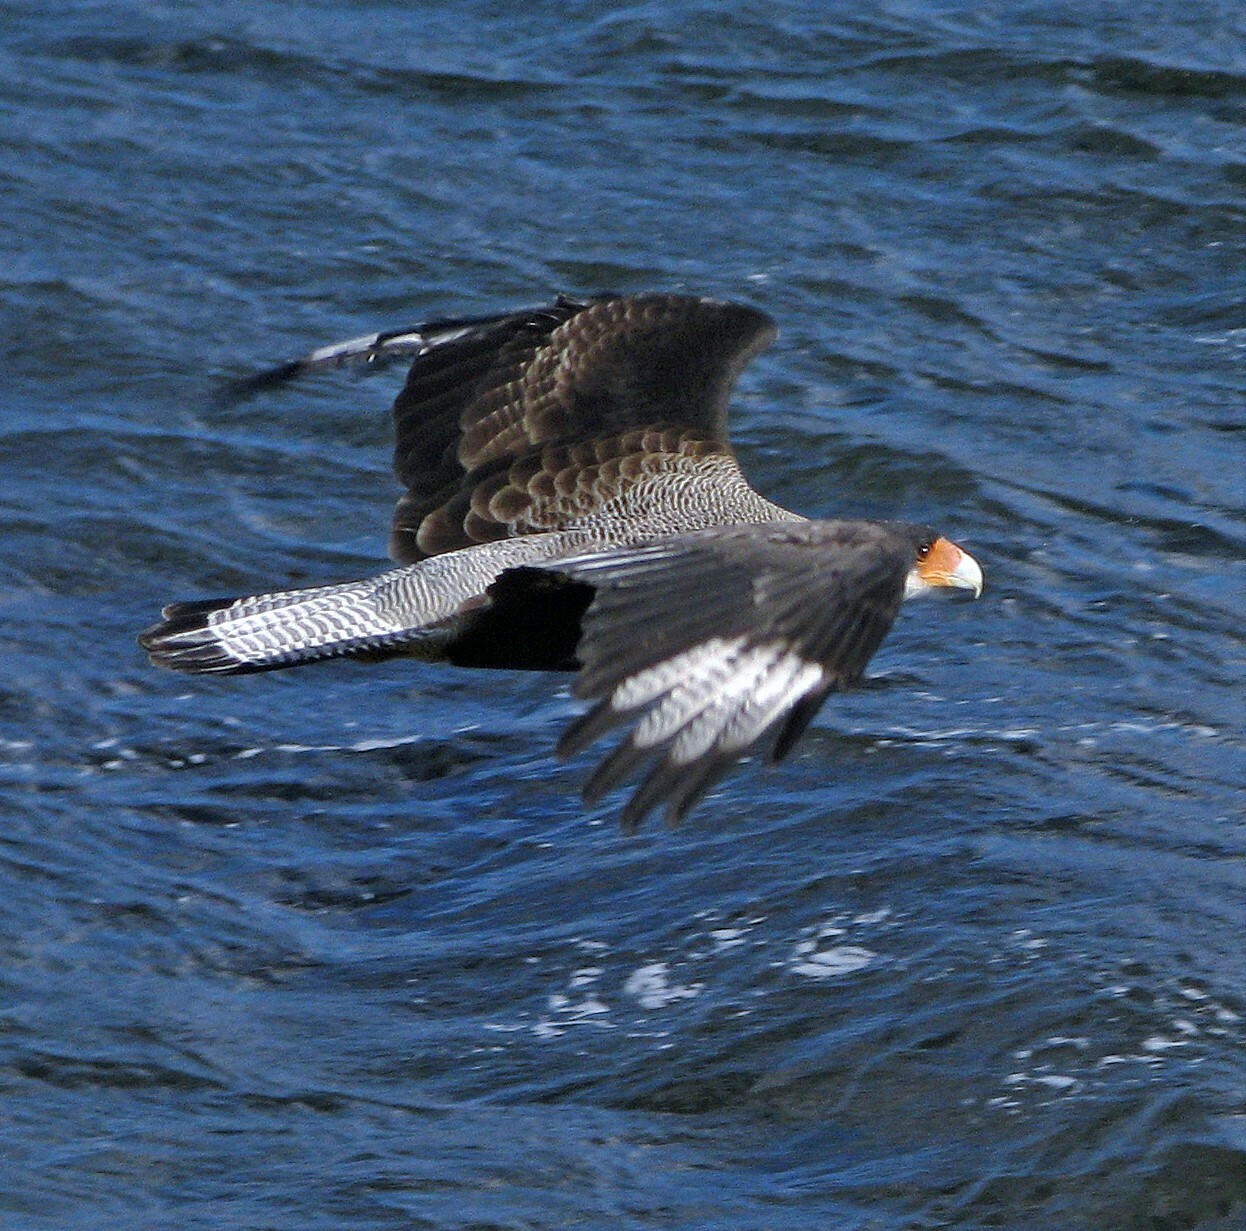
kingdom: Animalia
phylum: Chordata
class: Aves
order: Falconiformes
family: Falconidae
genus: Caracara
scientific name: Caracara plancus
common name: Southern caracara
